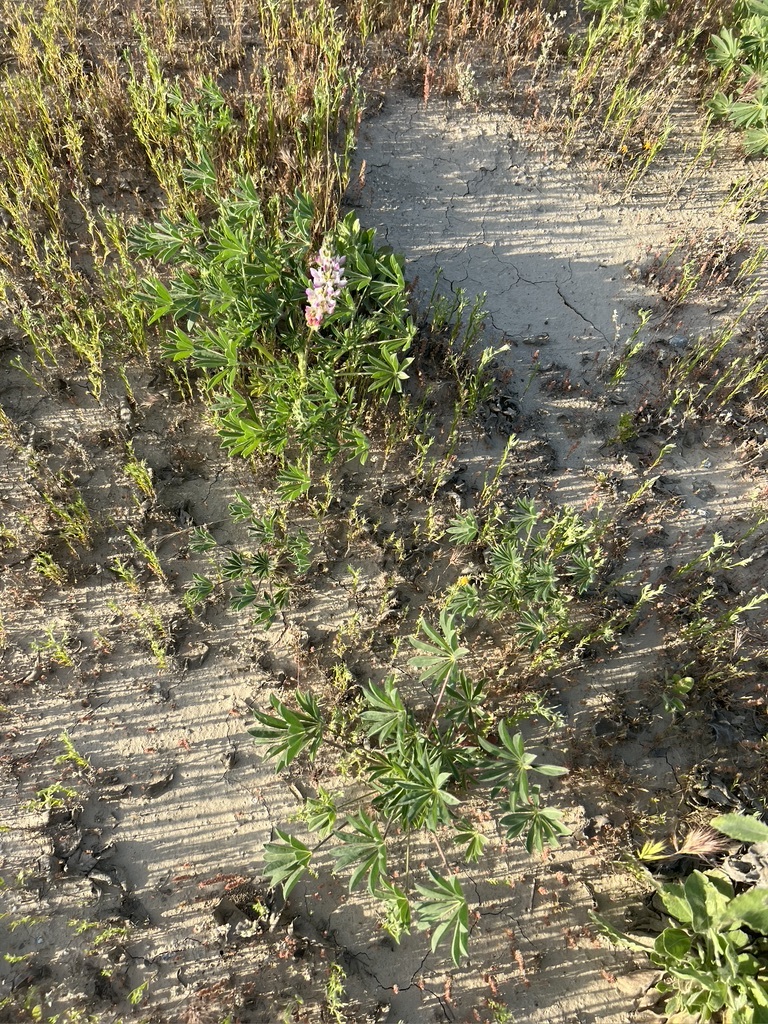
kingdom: Plantae
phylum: Tracheophyta
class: Magnoliopsida
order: Fabales
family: Fabaceae
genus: Lupinus
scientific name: Lupinus microcarpus
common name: Chick lupine
